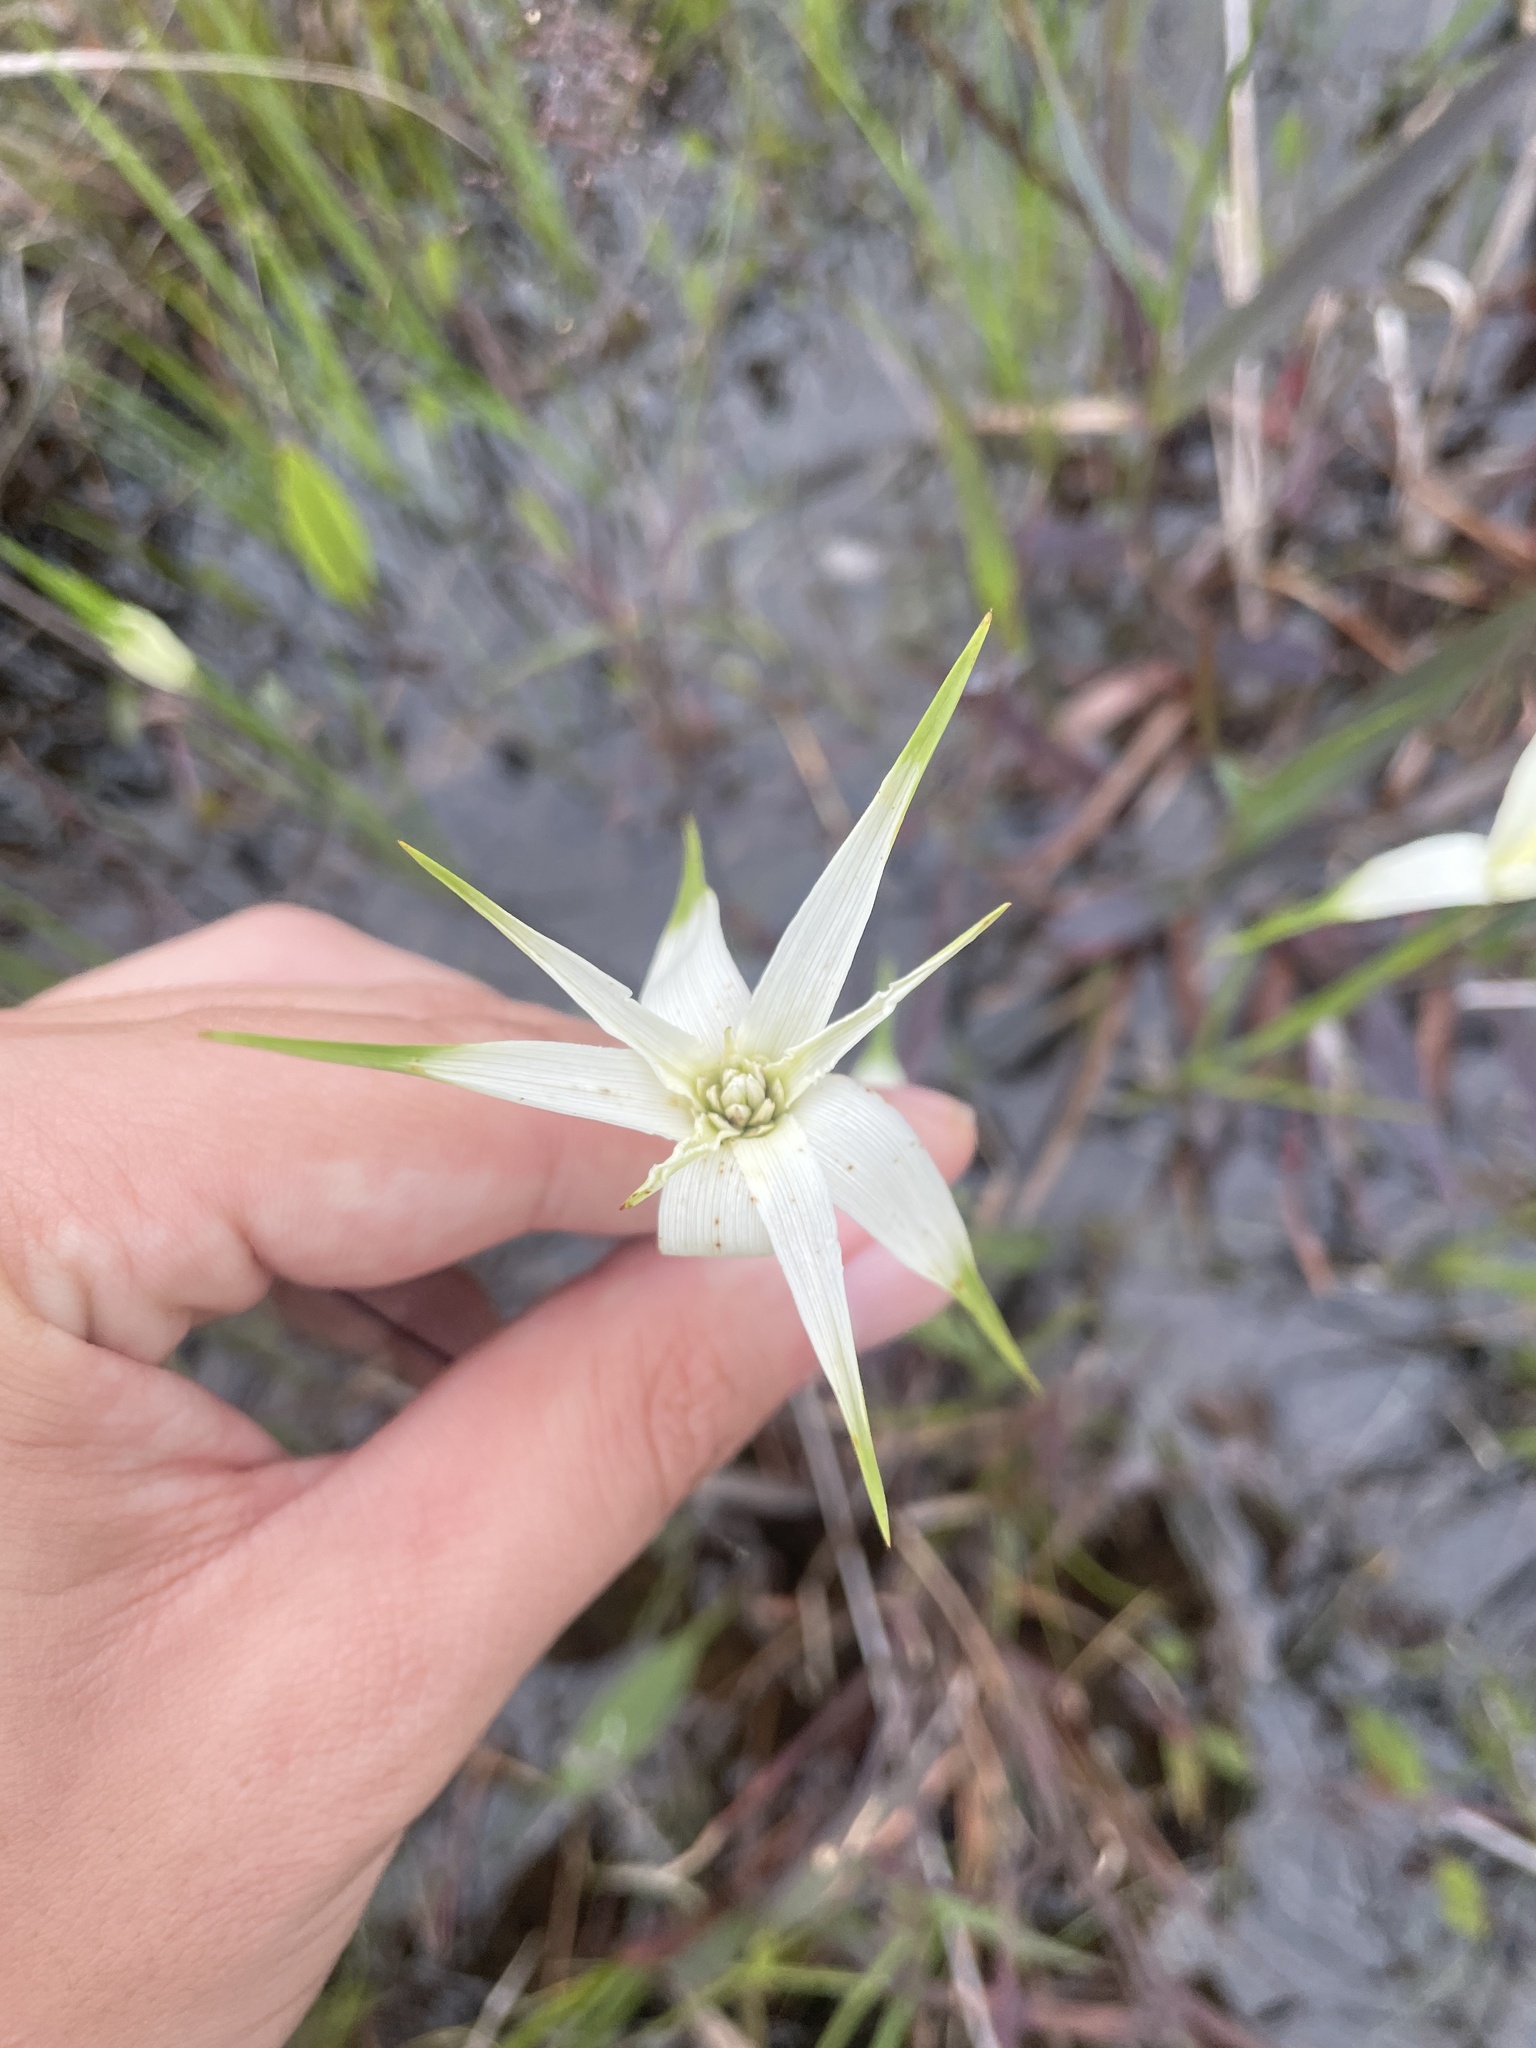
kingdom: Plantae
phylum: Tracheophyta
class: Liliopsida
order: Poales
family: Cyperaceae
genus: Rhynchospora
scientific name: Rhynchospora colorata
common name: Star sedge
